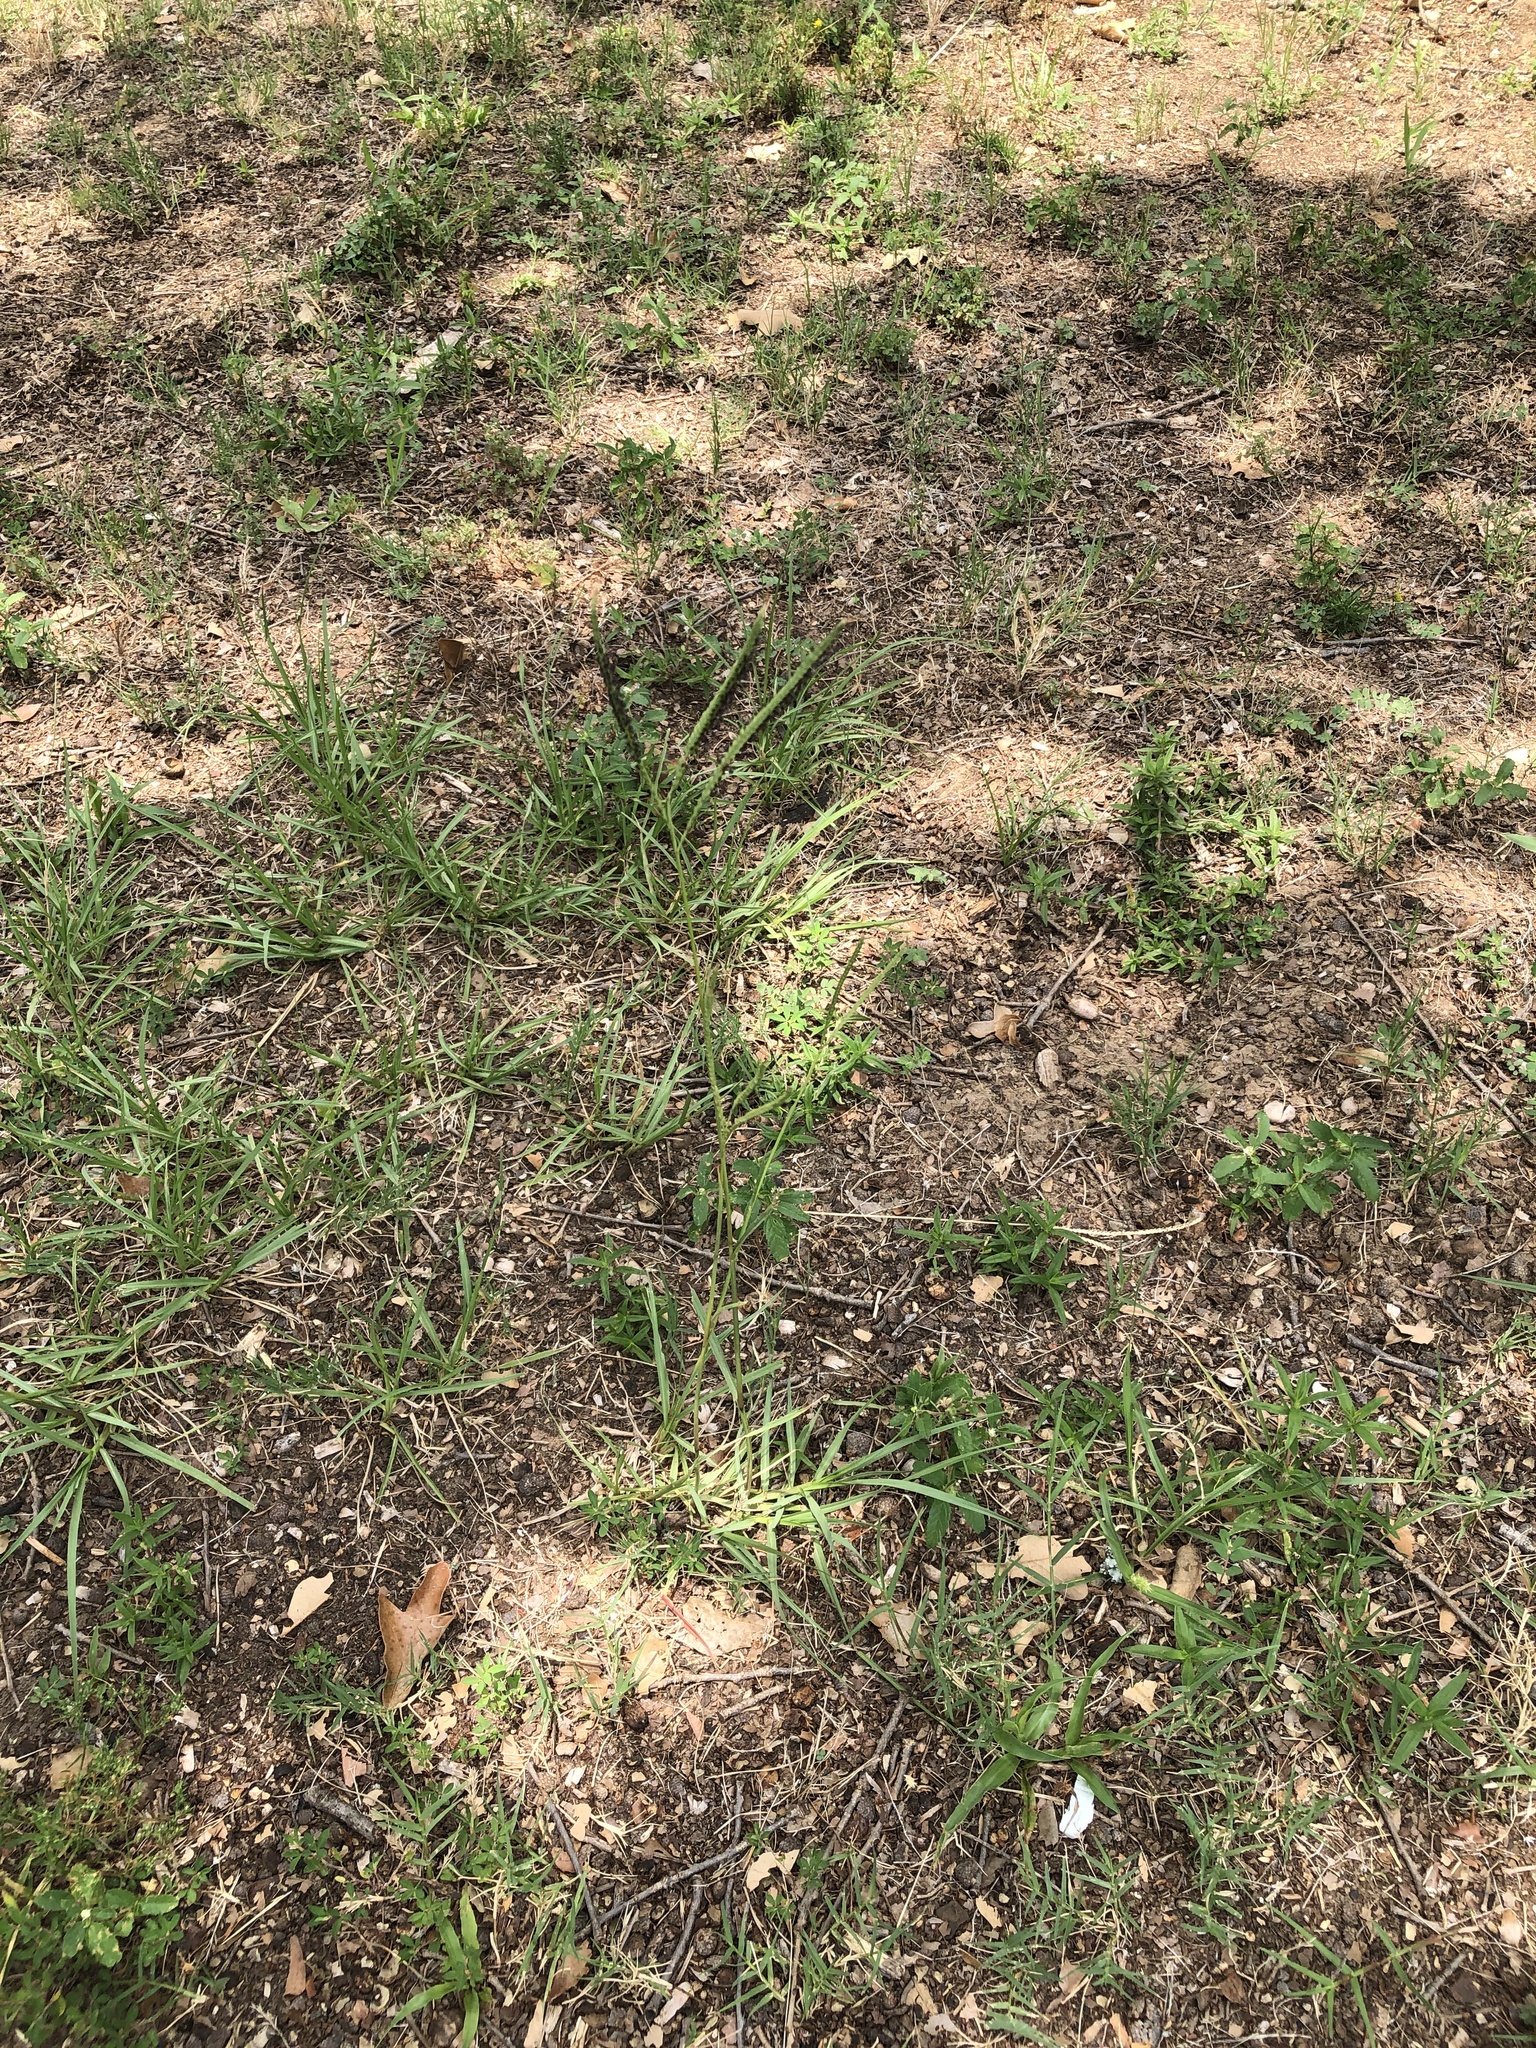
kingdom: Plantae
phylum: Tracheophyta
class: Liliopsida
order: Poales
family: Poaceae
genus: Paspalum
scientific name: Paspalum notatum
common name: Bahiagrass
